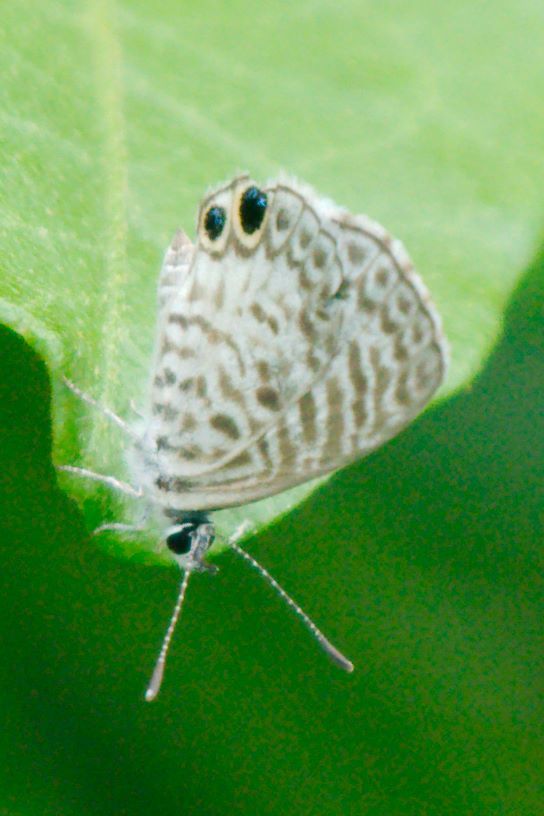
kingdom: Animalia
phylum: Arthropoda
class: Insecta
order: Lepidoptera
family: Lycaenidae
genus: Leptotes
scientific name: Leptotes cassius
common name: Cassius blue
